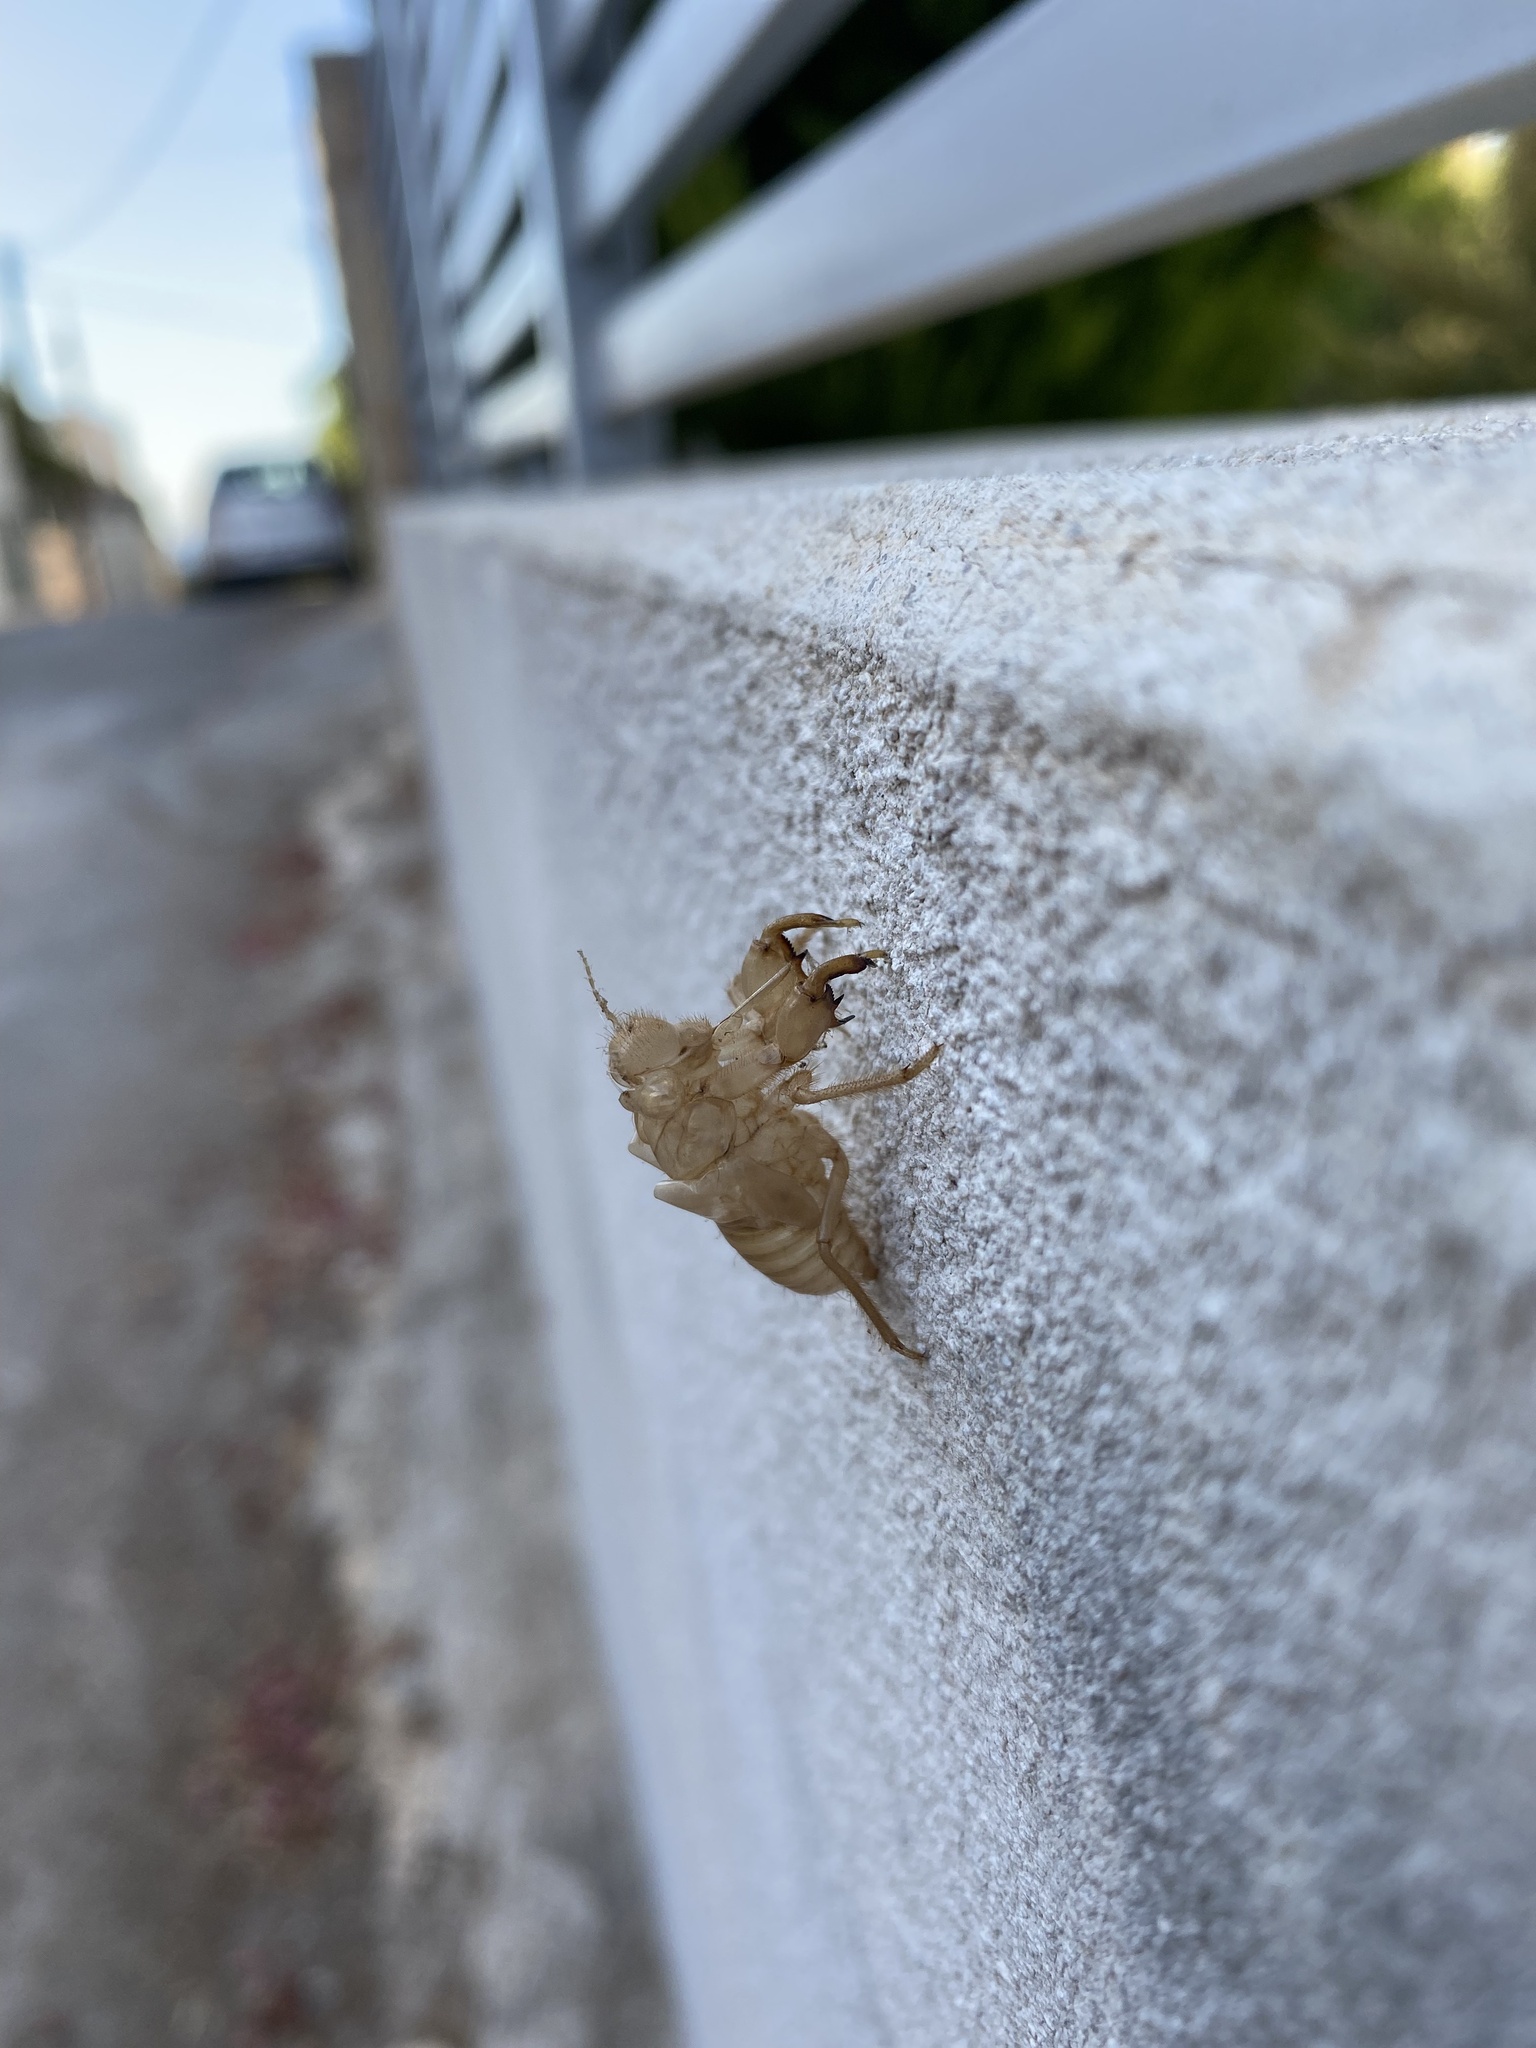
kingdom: Animalia
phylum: Arthropoda
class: Insecta
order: Hemiptera
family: Cicadidae
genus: Cicada
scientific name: Cicada cretensis
